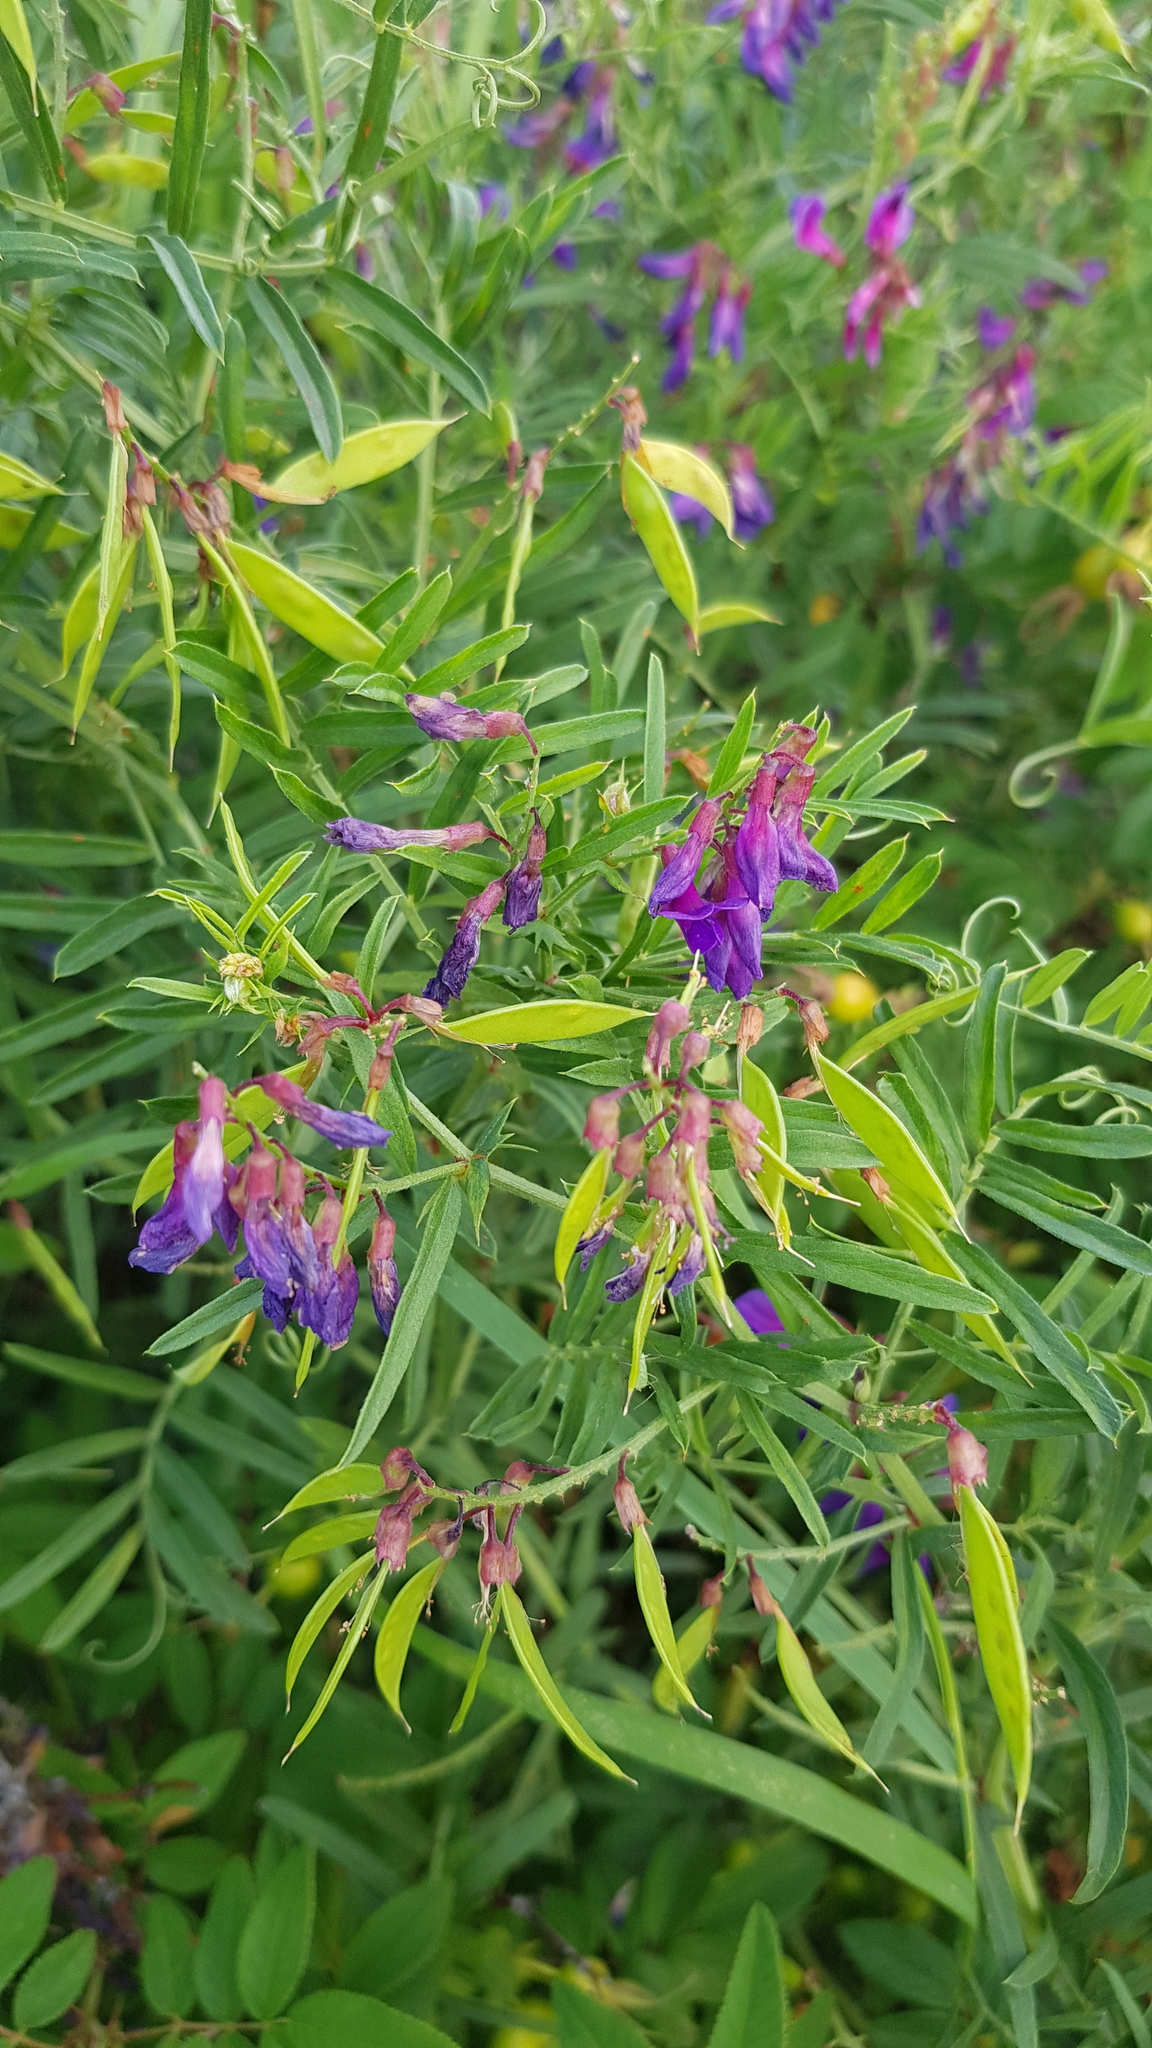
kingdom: Plantae
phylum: Tracheophyta
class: Magnoliopsida
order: Fabales
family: Fabaceae
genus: Vicia
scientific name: Vicia amoena
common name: Cheder ebs
